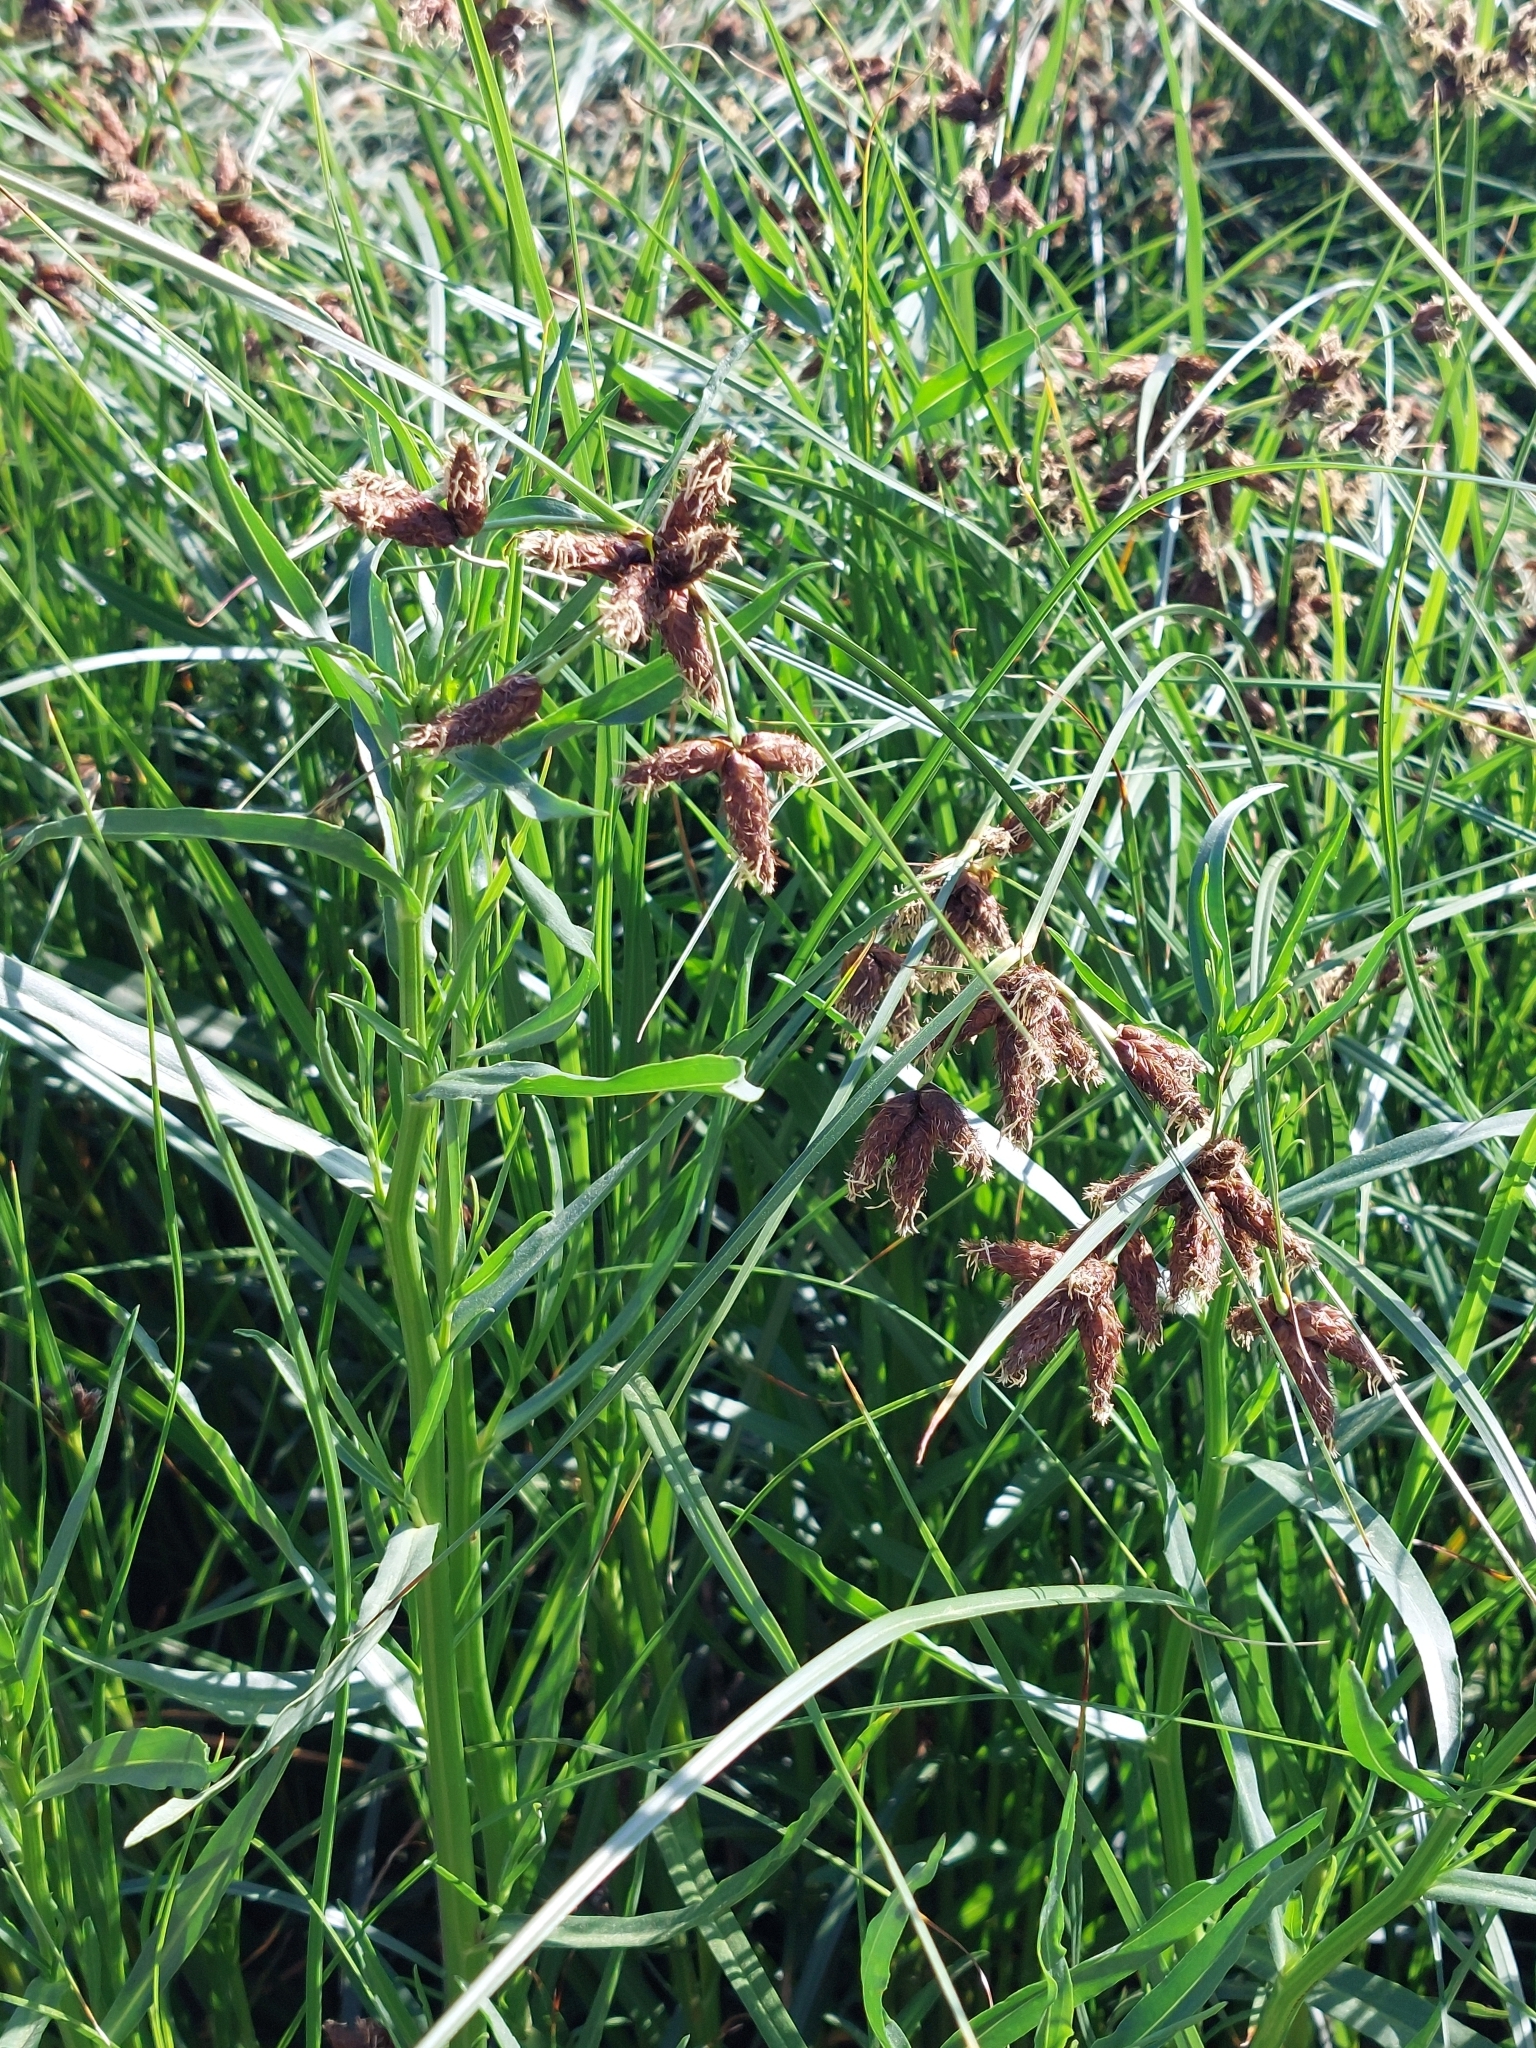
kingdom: Plantae
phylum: Tracheophyta
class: Liliopsida
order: Poales
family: Cyperaceae
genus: Bolboschoenus
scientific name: Bolboschoenus maritimus
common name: Sea club-rush
